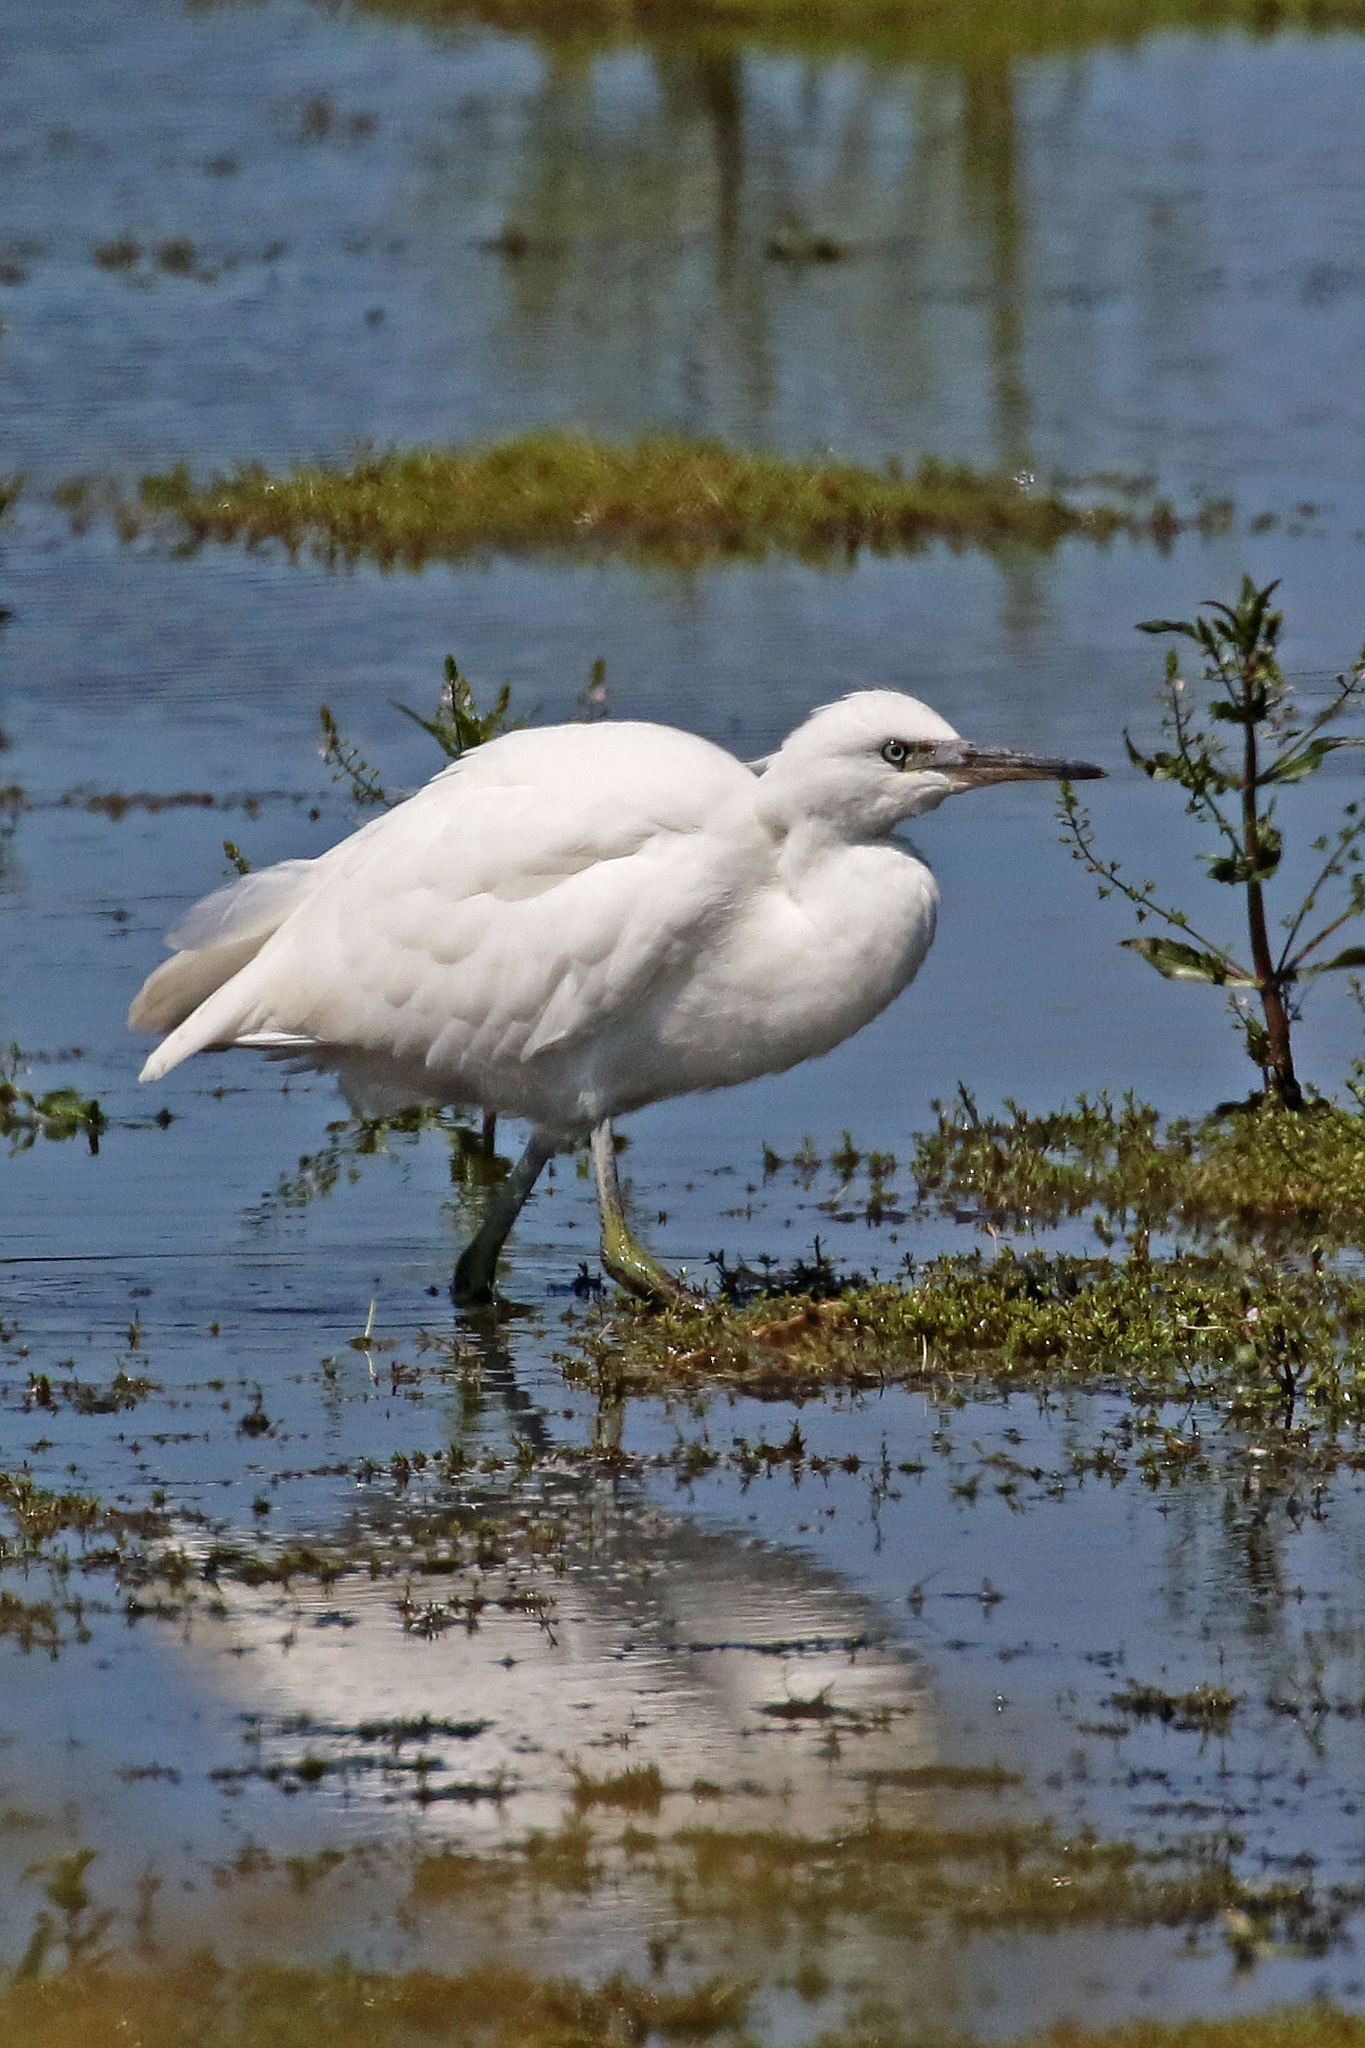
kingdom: Animalia
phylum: Chordata
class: Aves
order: Pelecaniformes
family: Ardeidae
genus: Egretta
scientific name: Egretta garzetta
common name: Little egret
